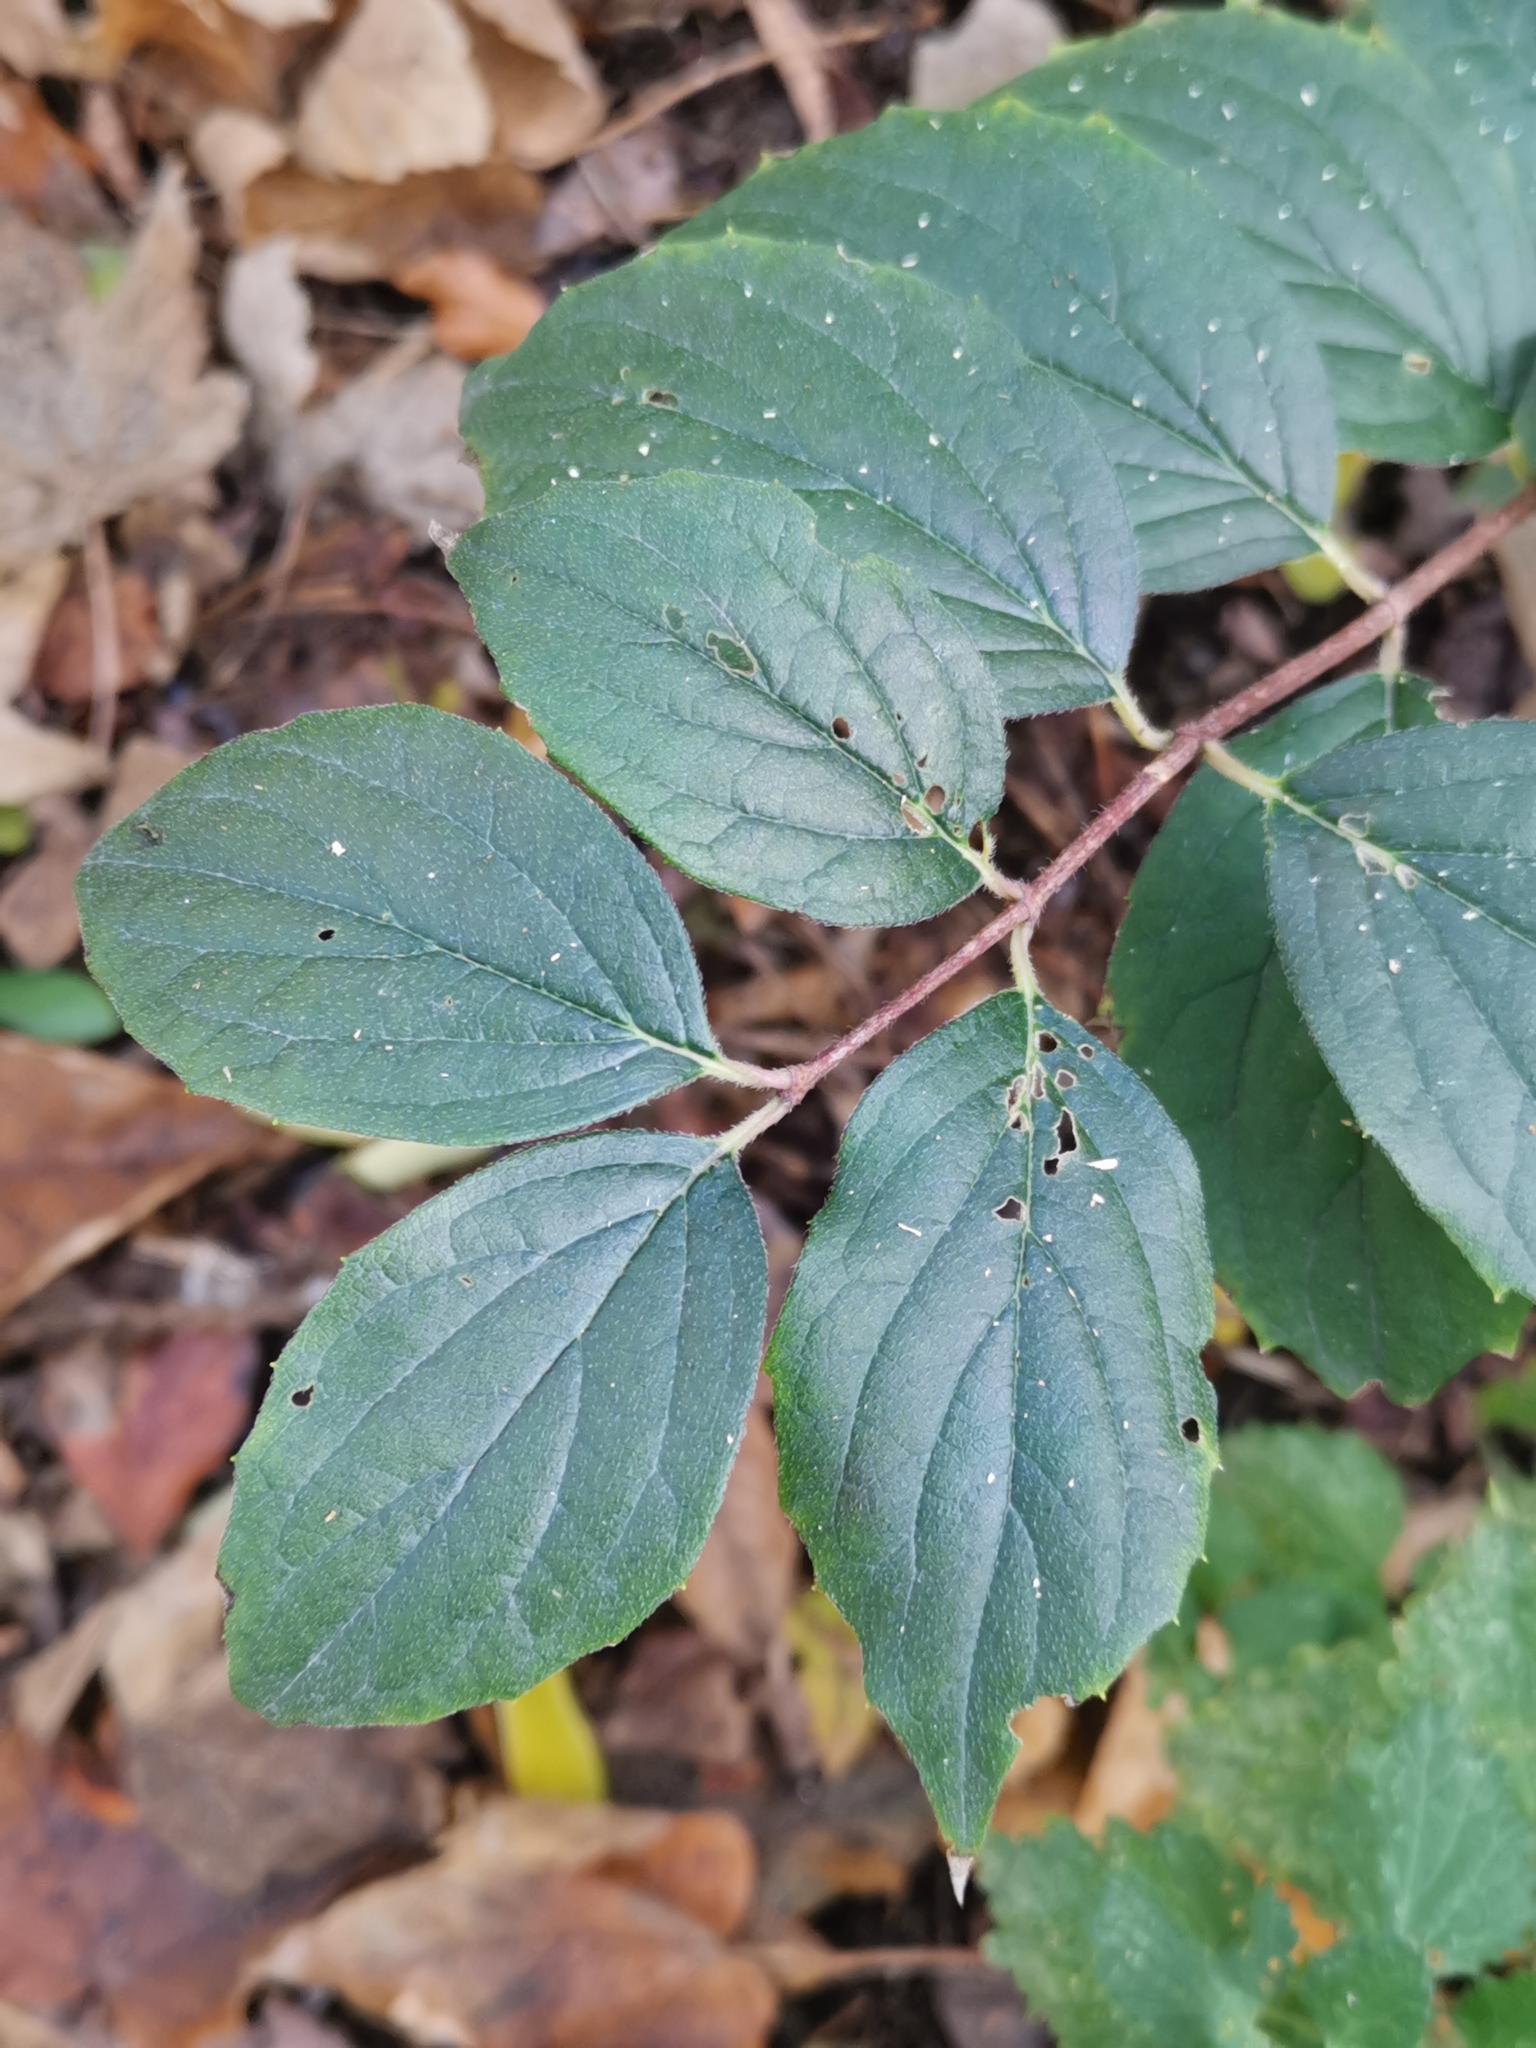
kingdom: Plantae
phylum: Tracheophyta
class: Magnoliopsida
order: Cornales
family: Hydrangeaceae
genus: Philadelphus
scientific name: Philadelphus coronarius
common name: Mock orange
